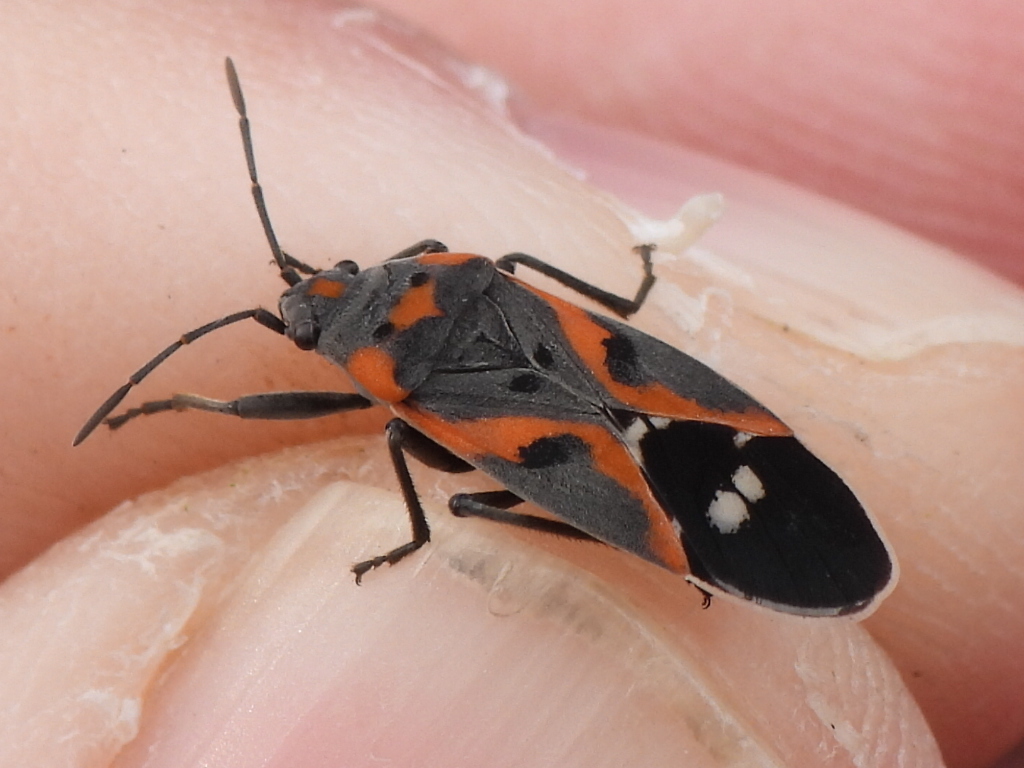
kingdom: Animalia
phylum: Arthropoda
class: Insecta
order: Hemiptera
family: Lygaeidae
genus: Lygaeus
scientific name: Lygaeus kalmii
